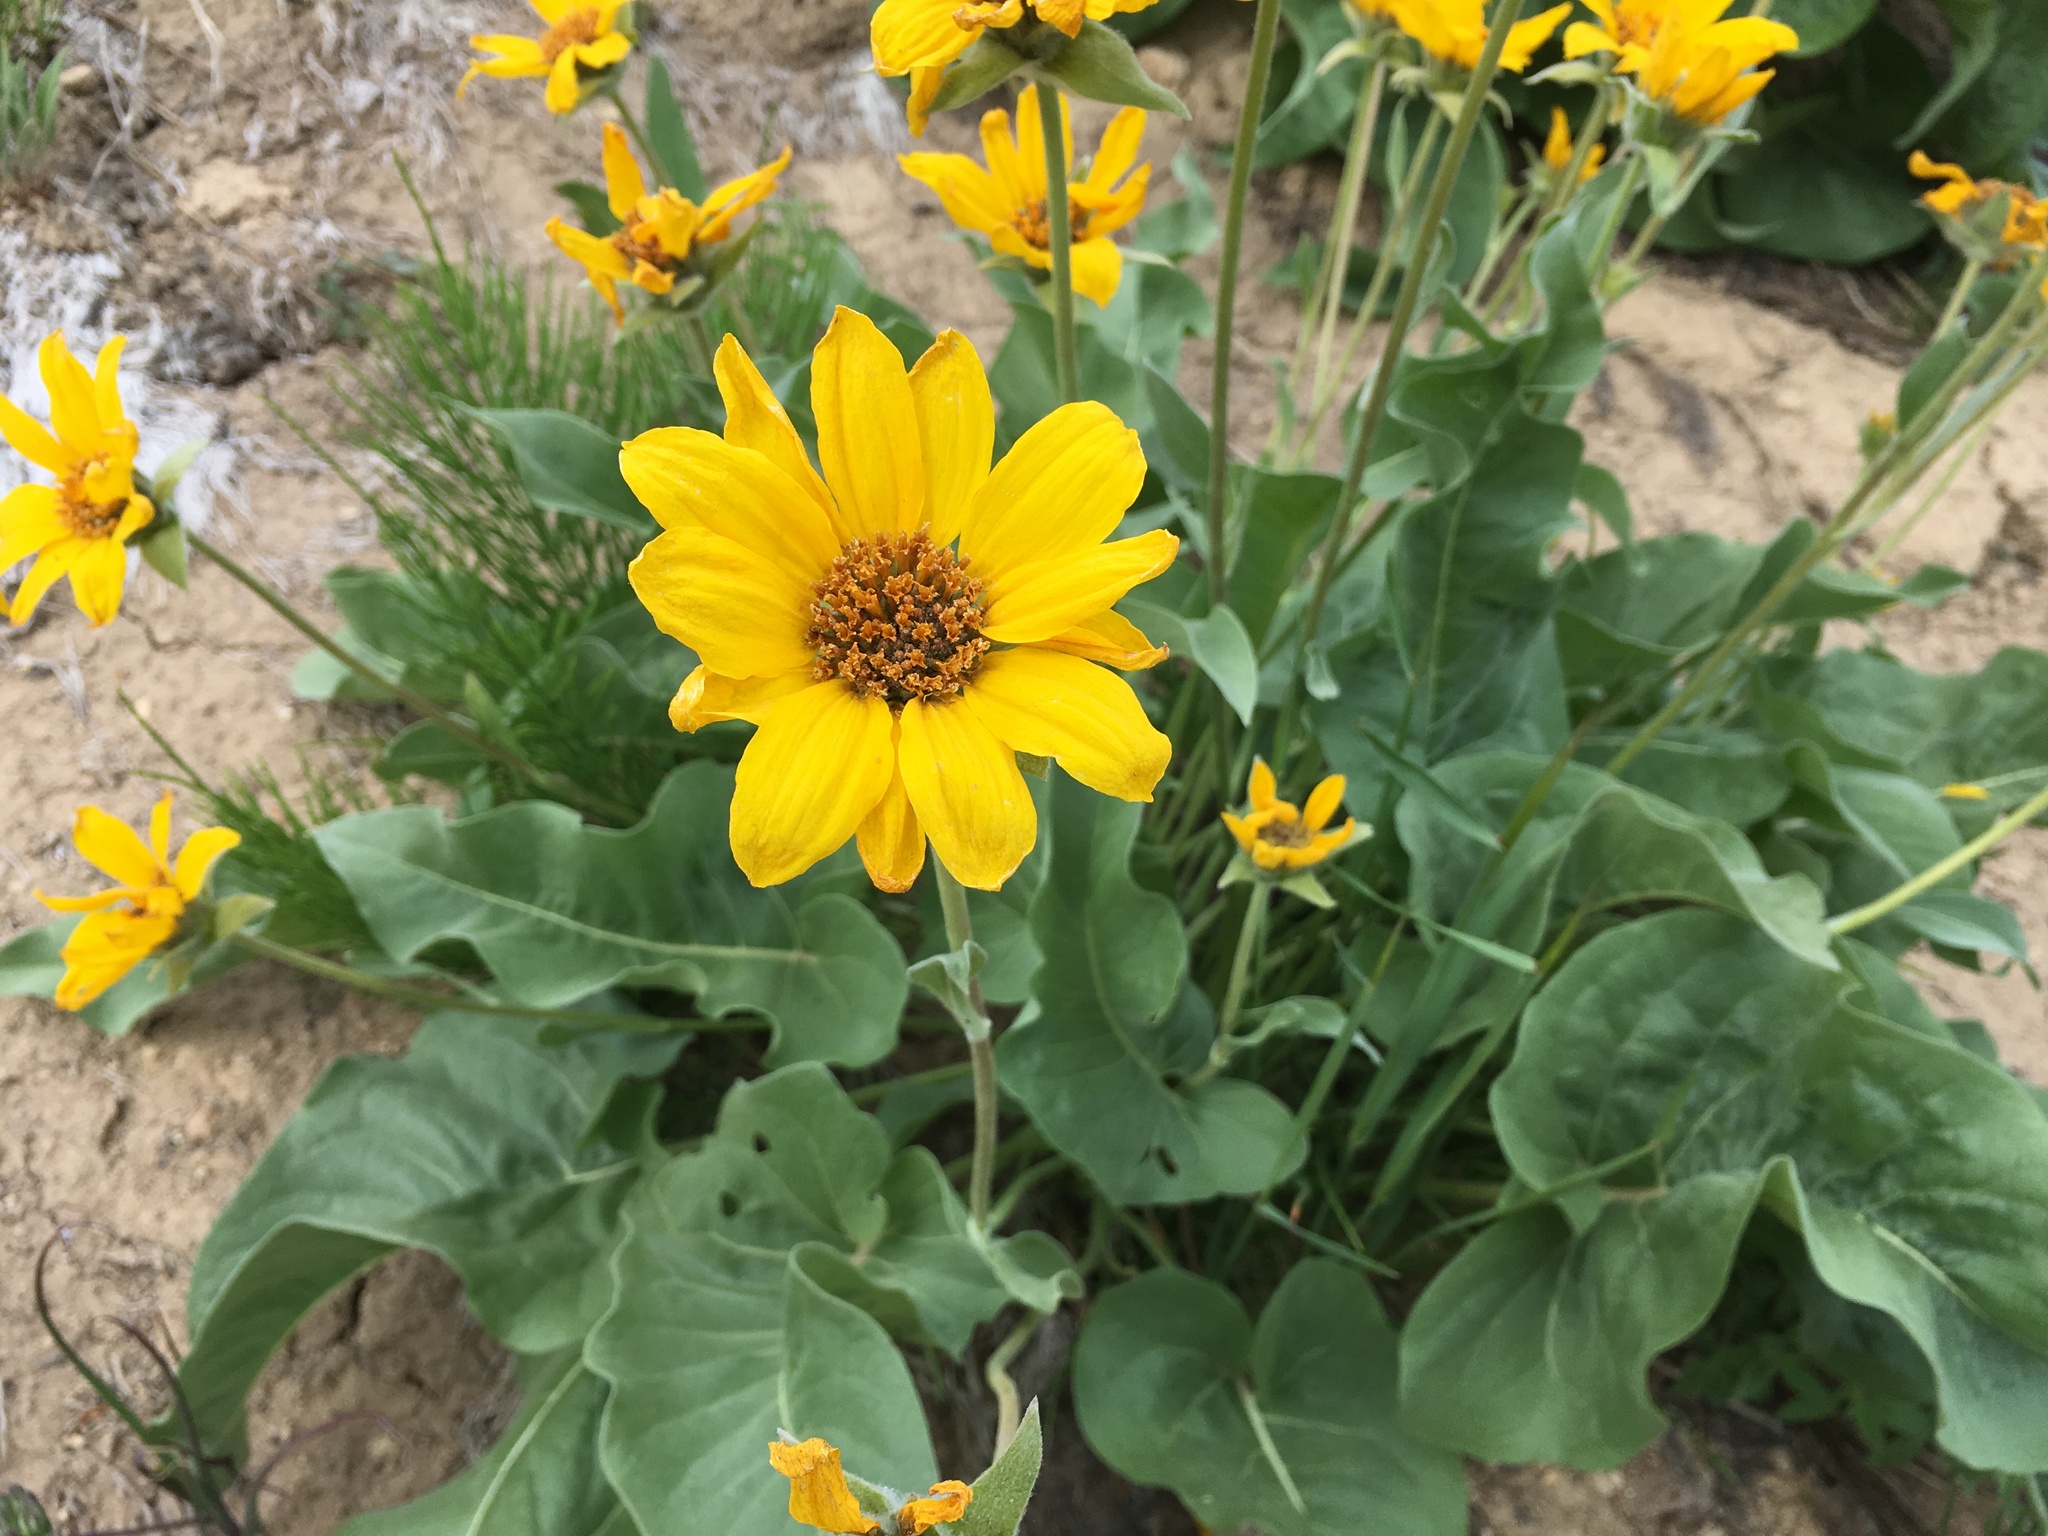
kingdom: Plantae
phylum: Tracheophyta
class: Magnoliopsida
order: Asterales
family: Asteraceae
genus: Wyethia
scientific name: Wyethia sagittata
